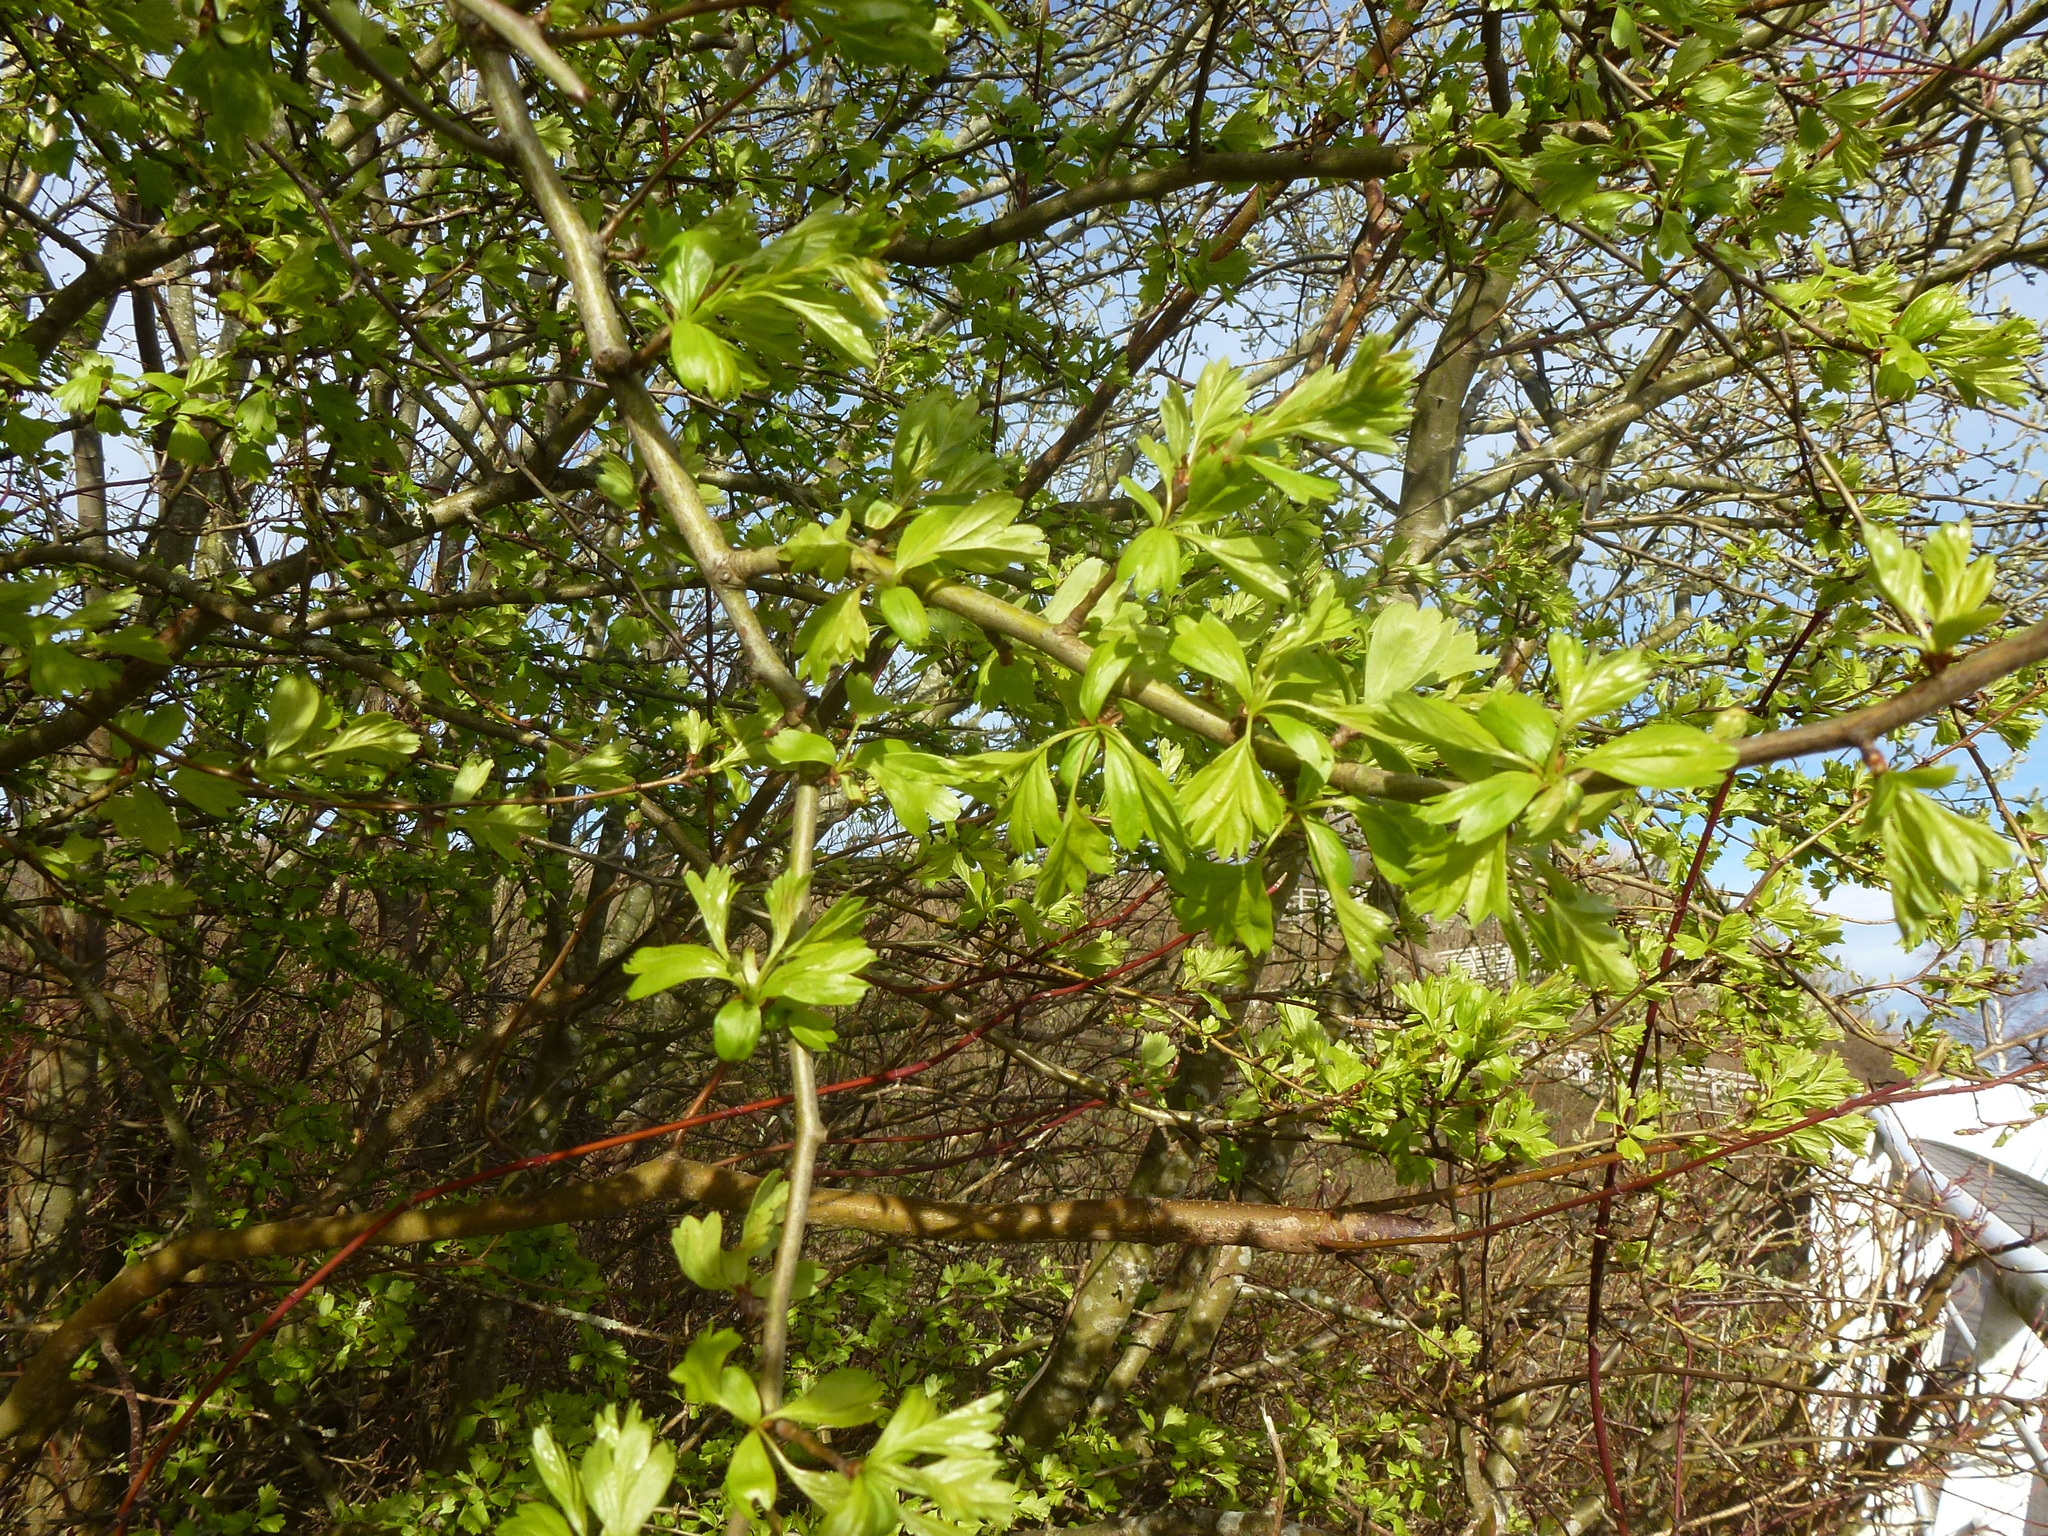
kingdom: Plantae
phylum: Tracheophyta
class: Magnoliopsida
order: Rosales
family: Rosaceae
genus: Crataegus
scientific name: Crataegus monogyna
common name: Hawthorn
